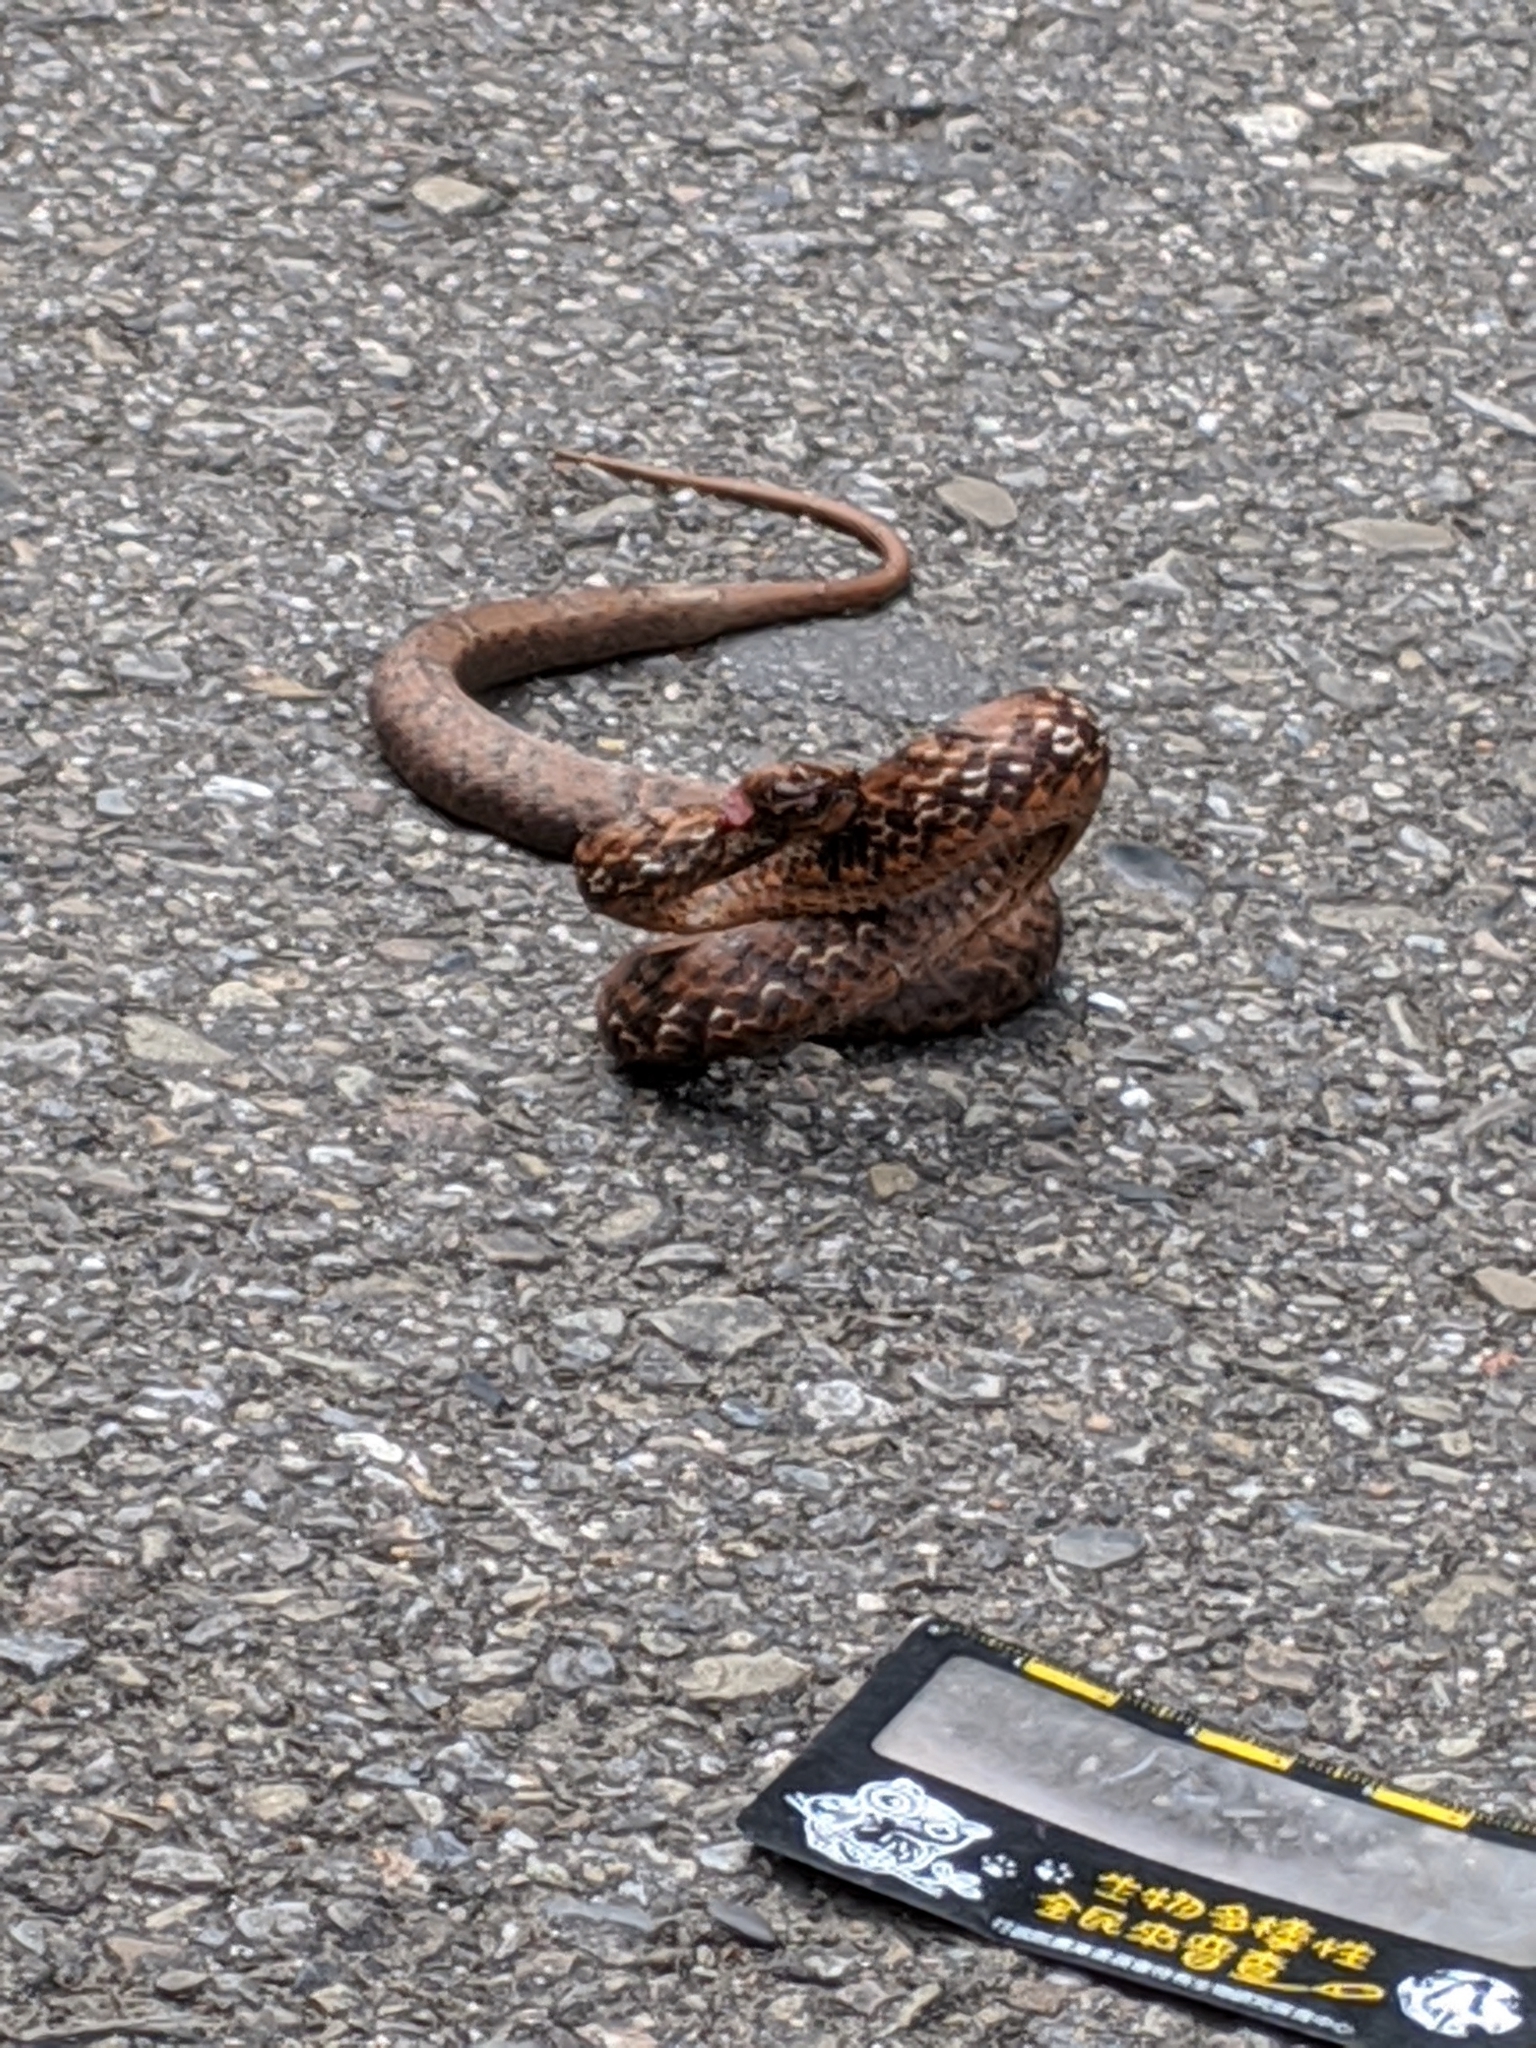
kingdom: Animalia
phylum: Chordata
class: Squamata
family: Pseudaspididae
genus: Psammodynastes
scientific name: Psammodynastes pulverulentus
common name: Common mock viper
